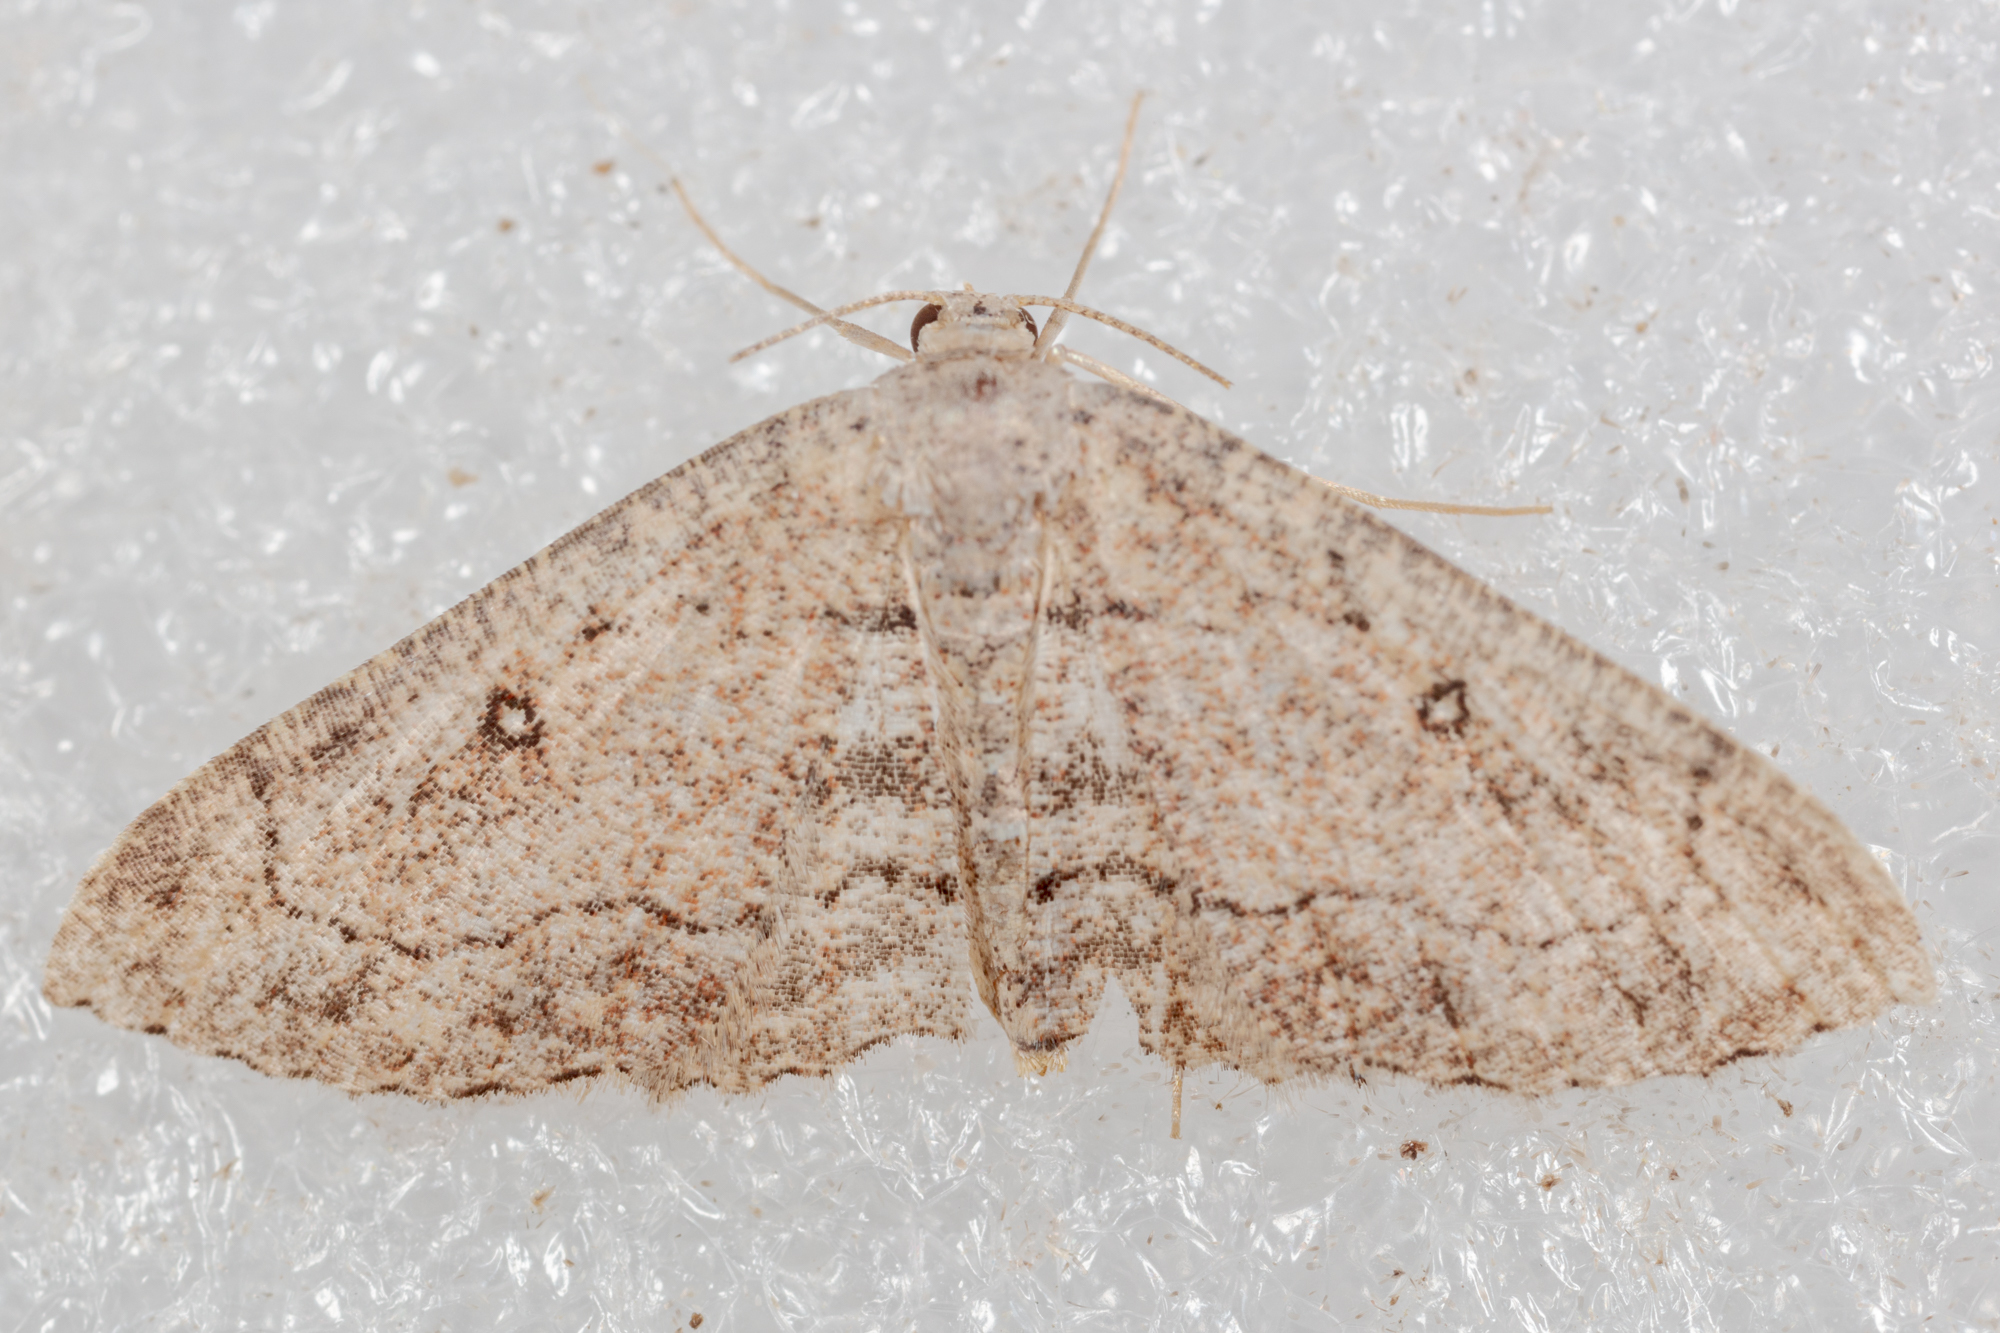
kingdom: Animalia
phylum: Arthropoda
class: Insecta
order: Lepidoptera
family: Geometridae
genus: Cyclophora
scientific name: Cyclophora nanaria
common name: Cankerworm
